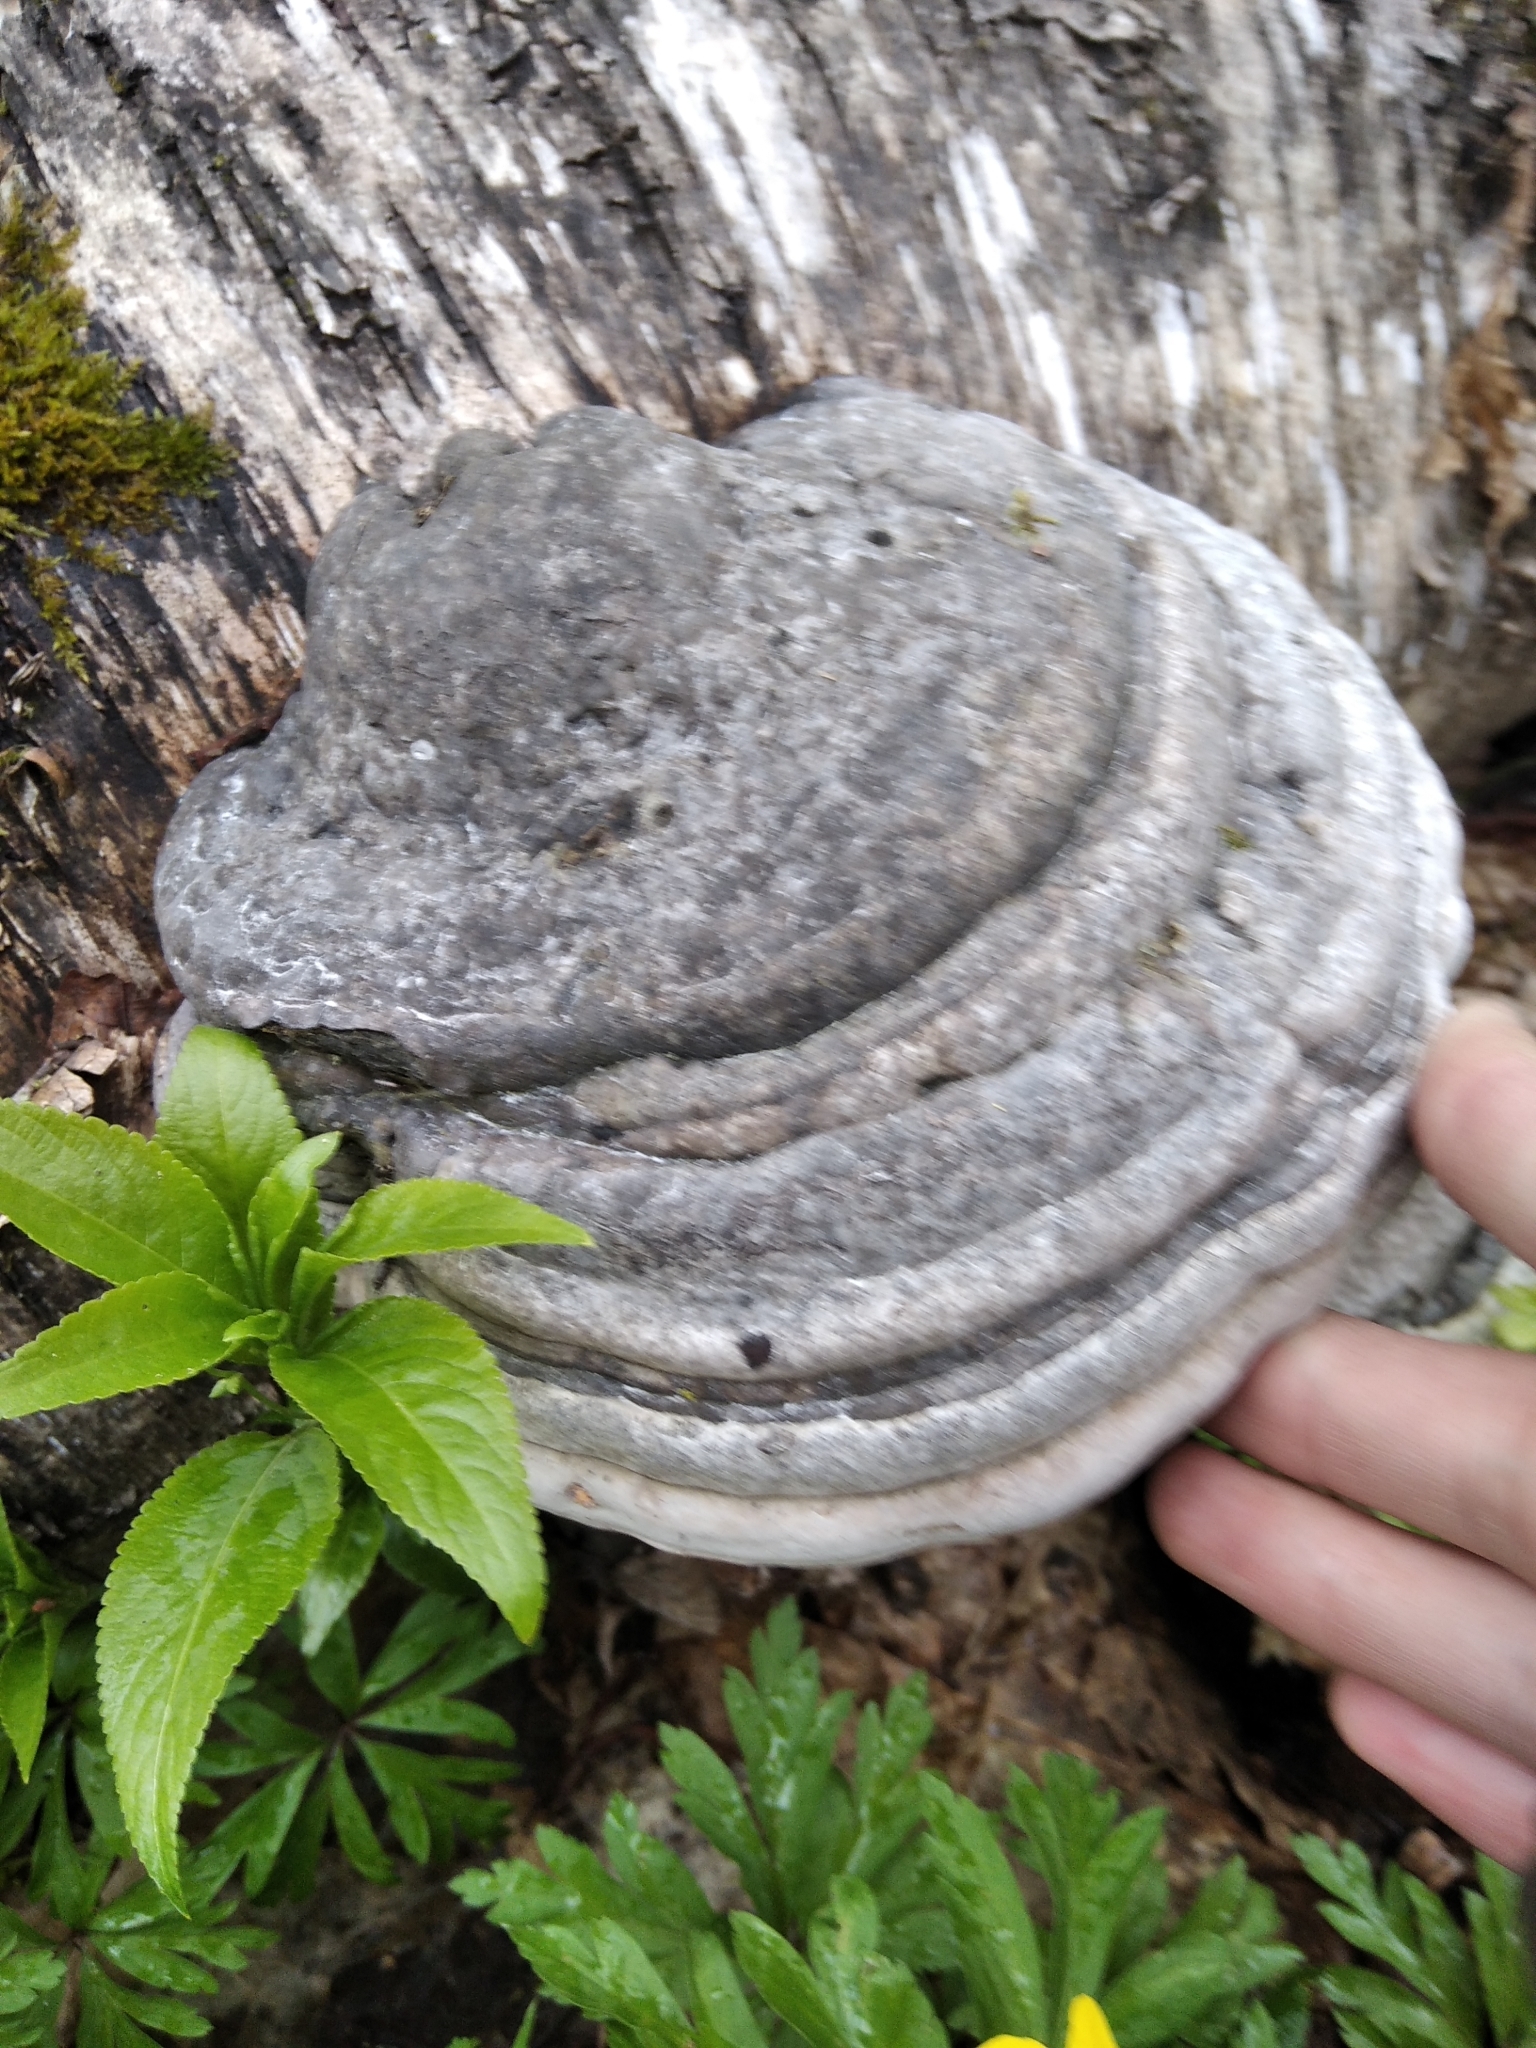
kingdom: Fungi
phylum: Basidiomycota
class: Agaricomycetes
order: Polyporales
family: Polyporaceae
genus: Fomes
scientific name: Fomes fomentarius
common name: Hoof fungus
